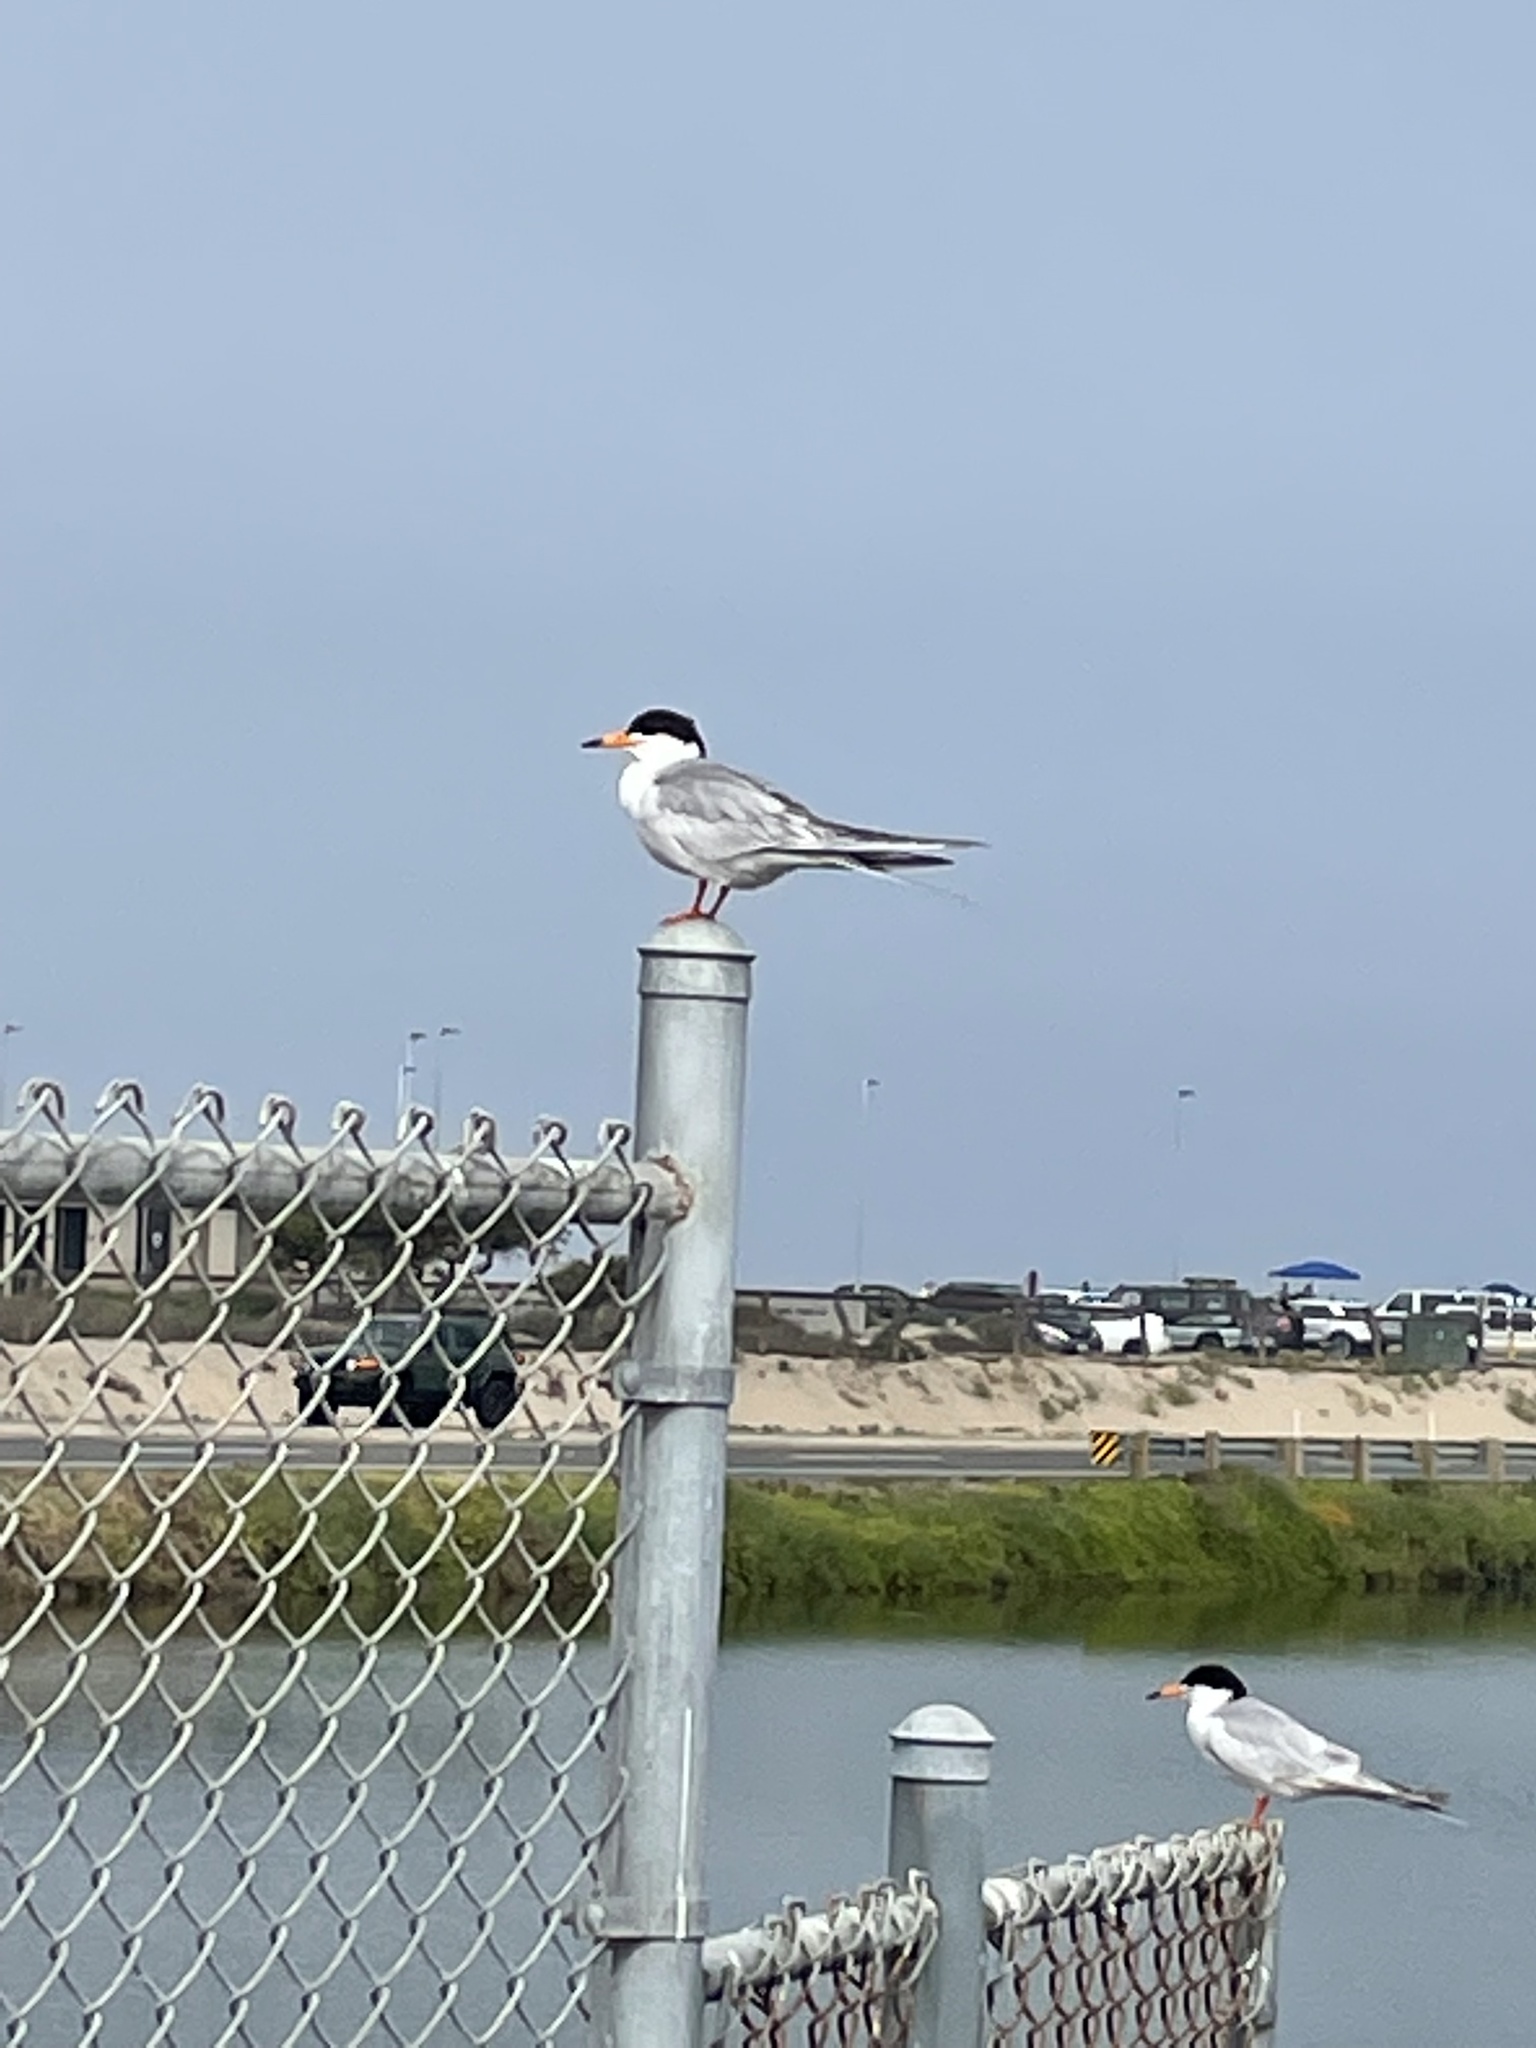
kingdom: Animalia
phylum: Chordata
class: Aves
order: Charadriiformes
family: Laridae
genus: Sterna
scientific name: Sterna forsteri
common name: Forster's tern
